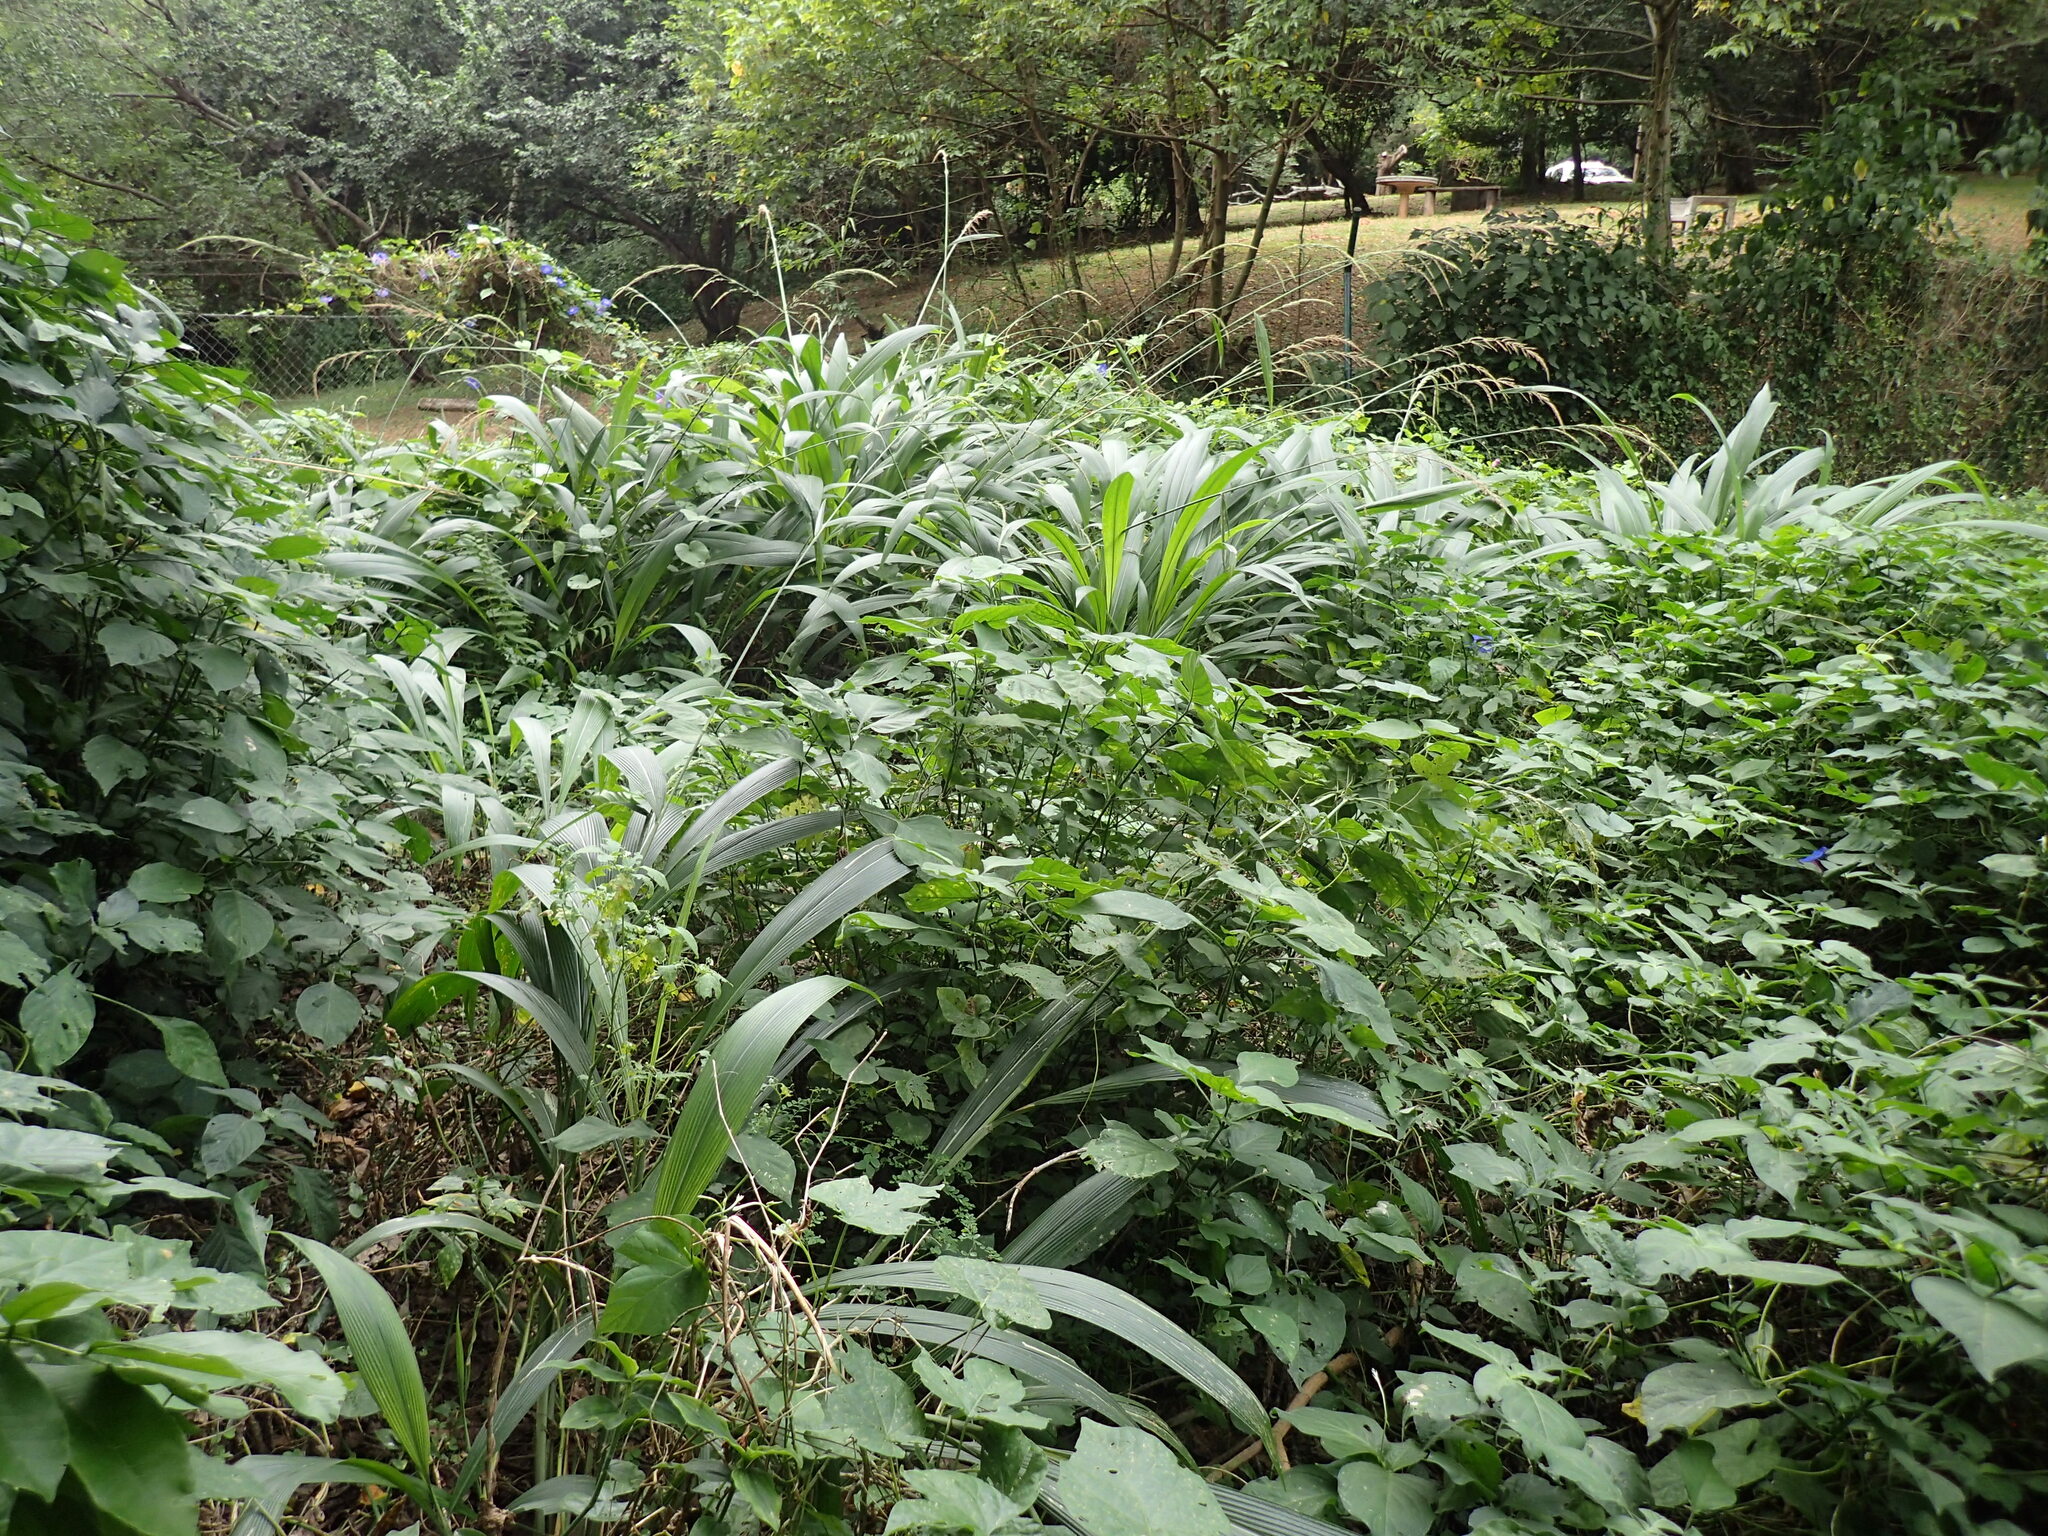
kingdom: Plantae
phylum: Tracheophyta
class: Liliopsida
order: Poales
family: Poaceae
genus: Setaria
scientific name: Setaria megaphylla
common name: Bigleaf bristlegrass
